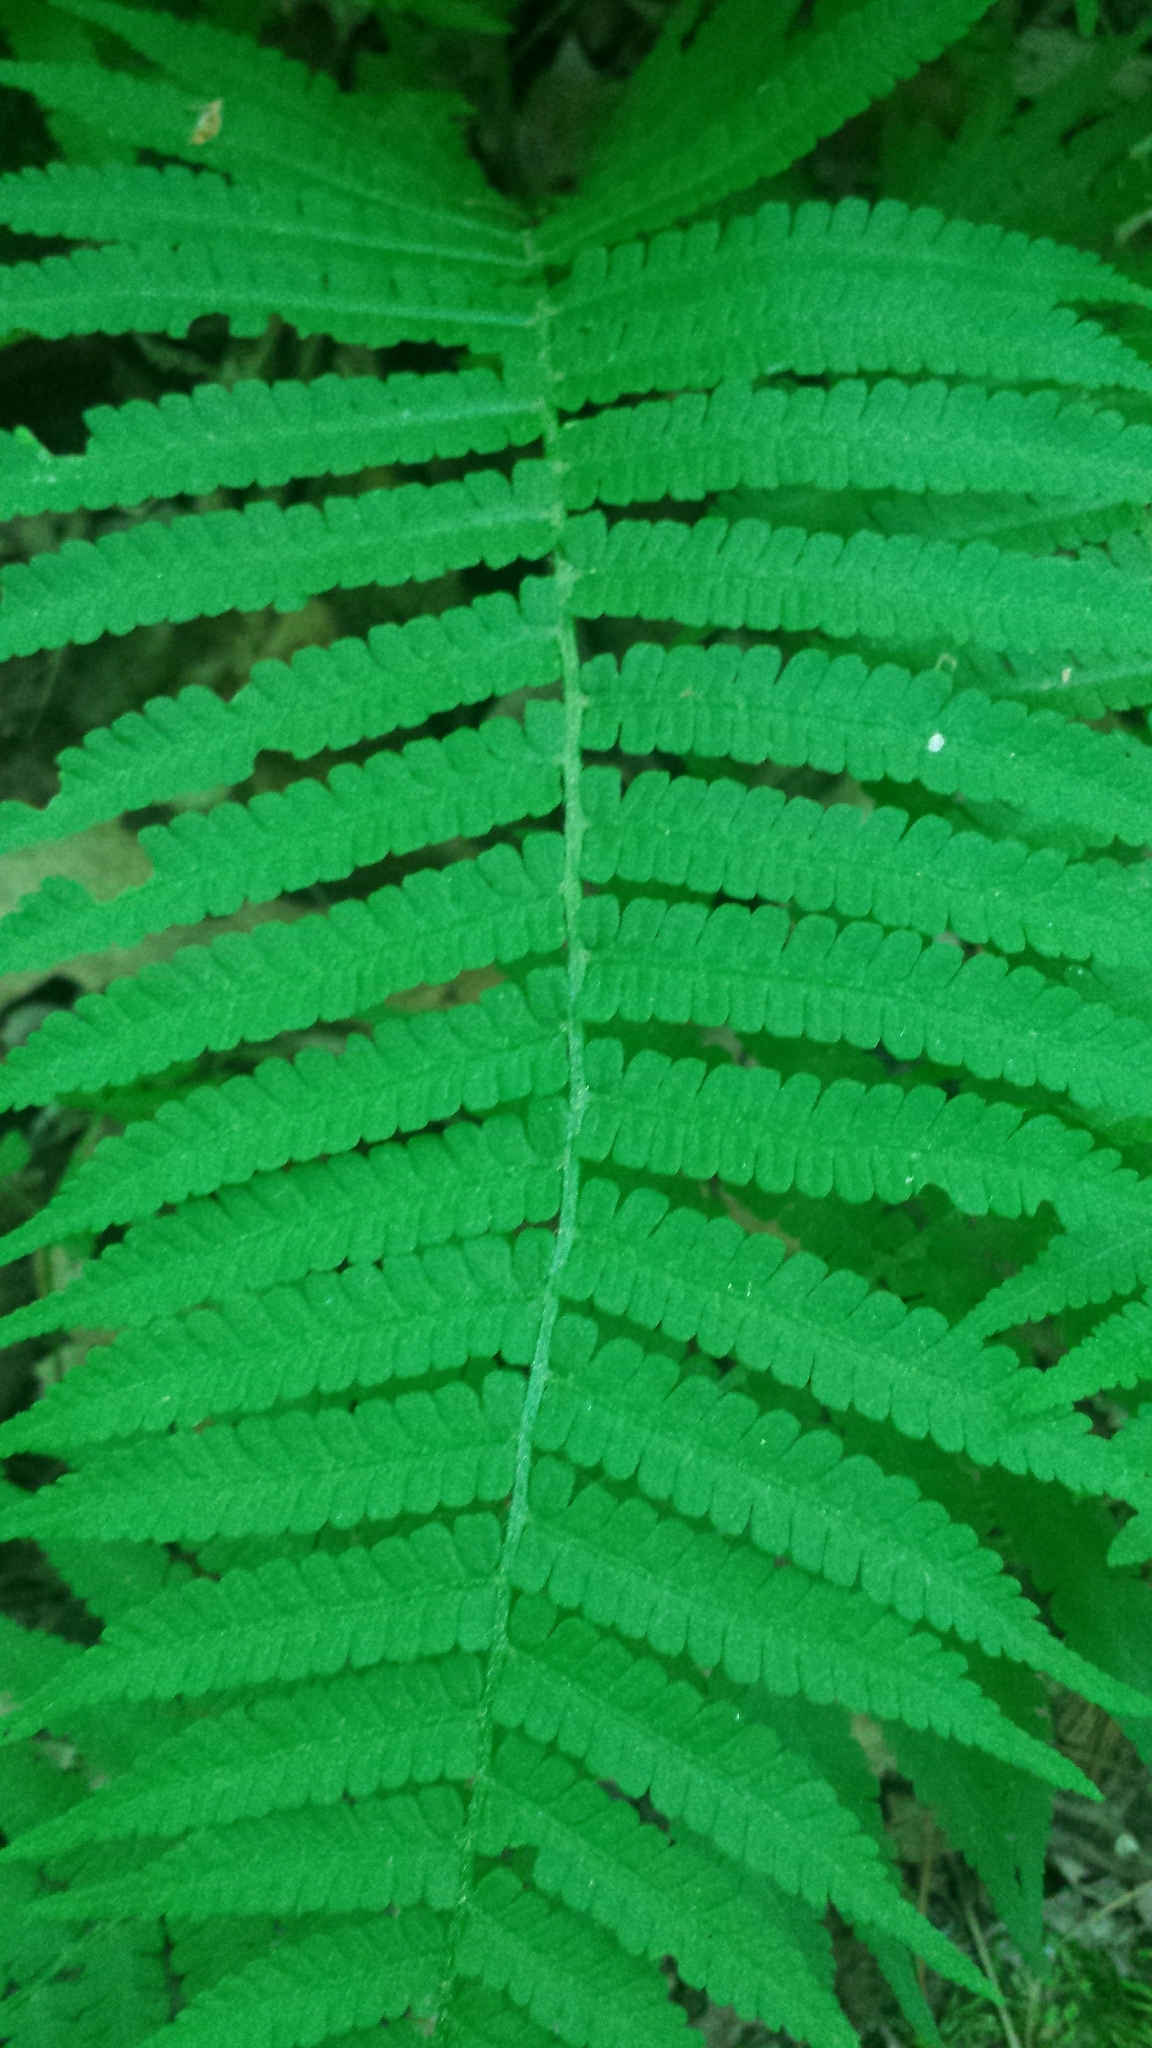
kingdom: Plantae
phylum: Tracheophyta
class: Polypodiopsida
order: Polypodiales
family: Athyriaceae
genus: Deparia
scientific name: Deparia acrostichoides
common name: Silver false spleenwort
